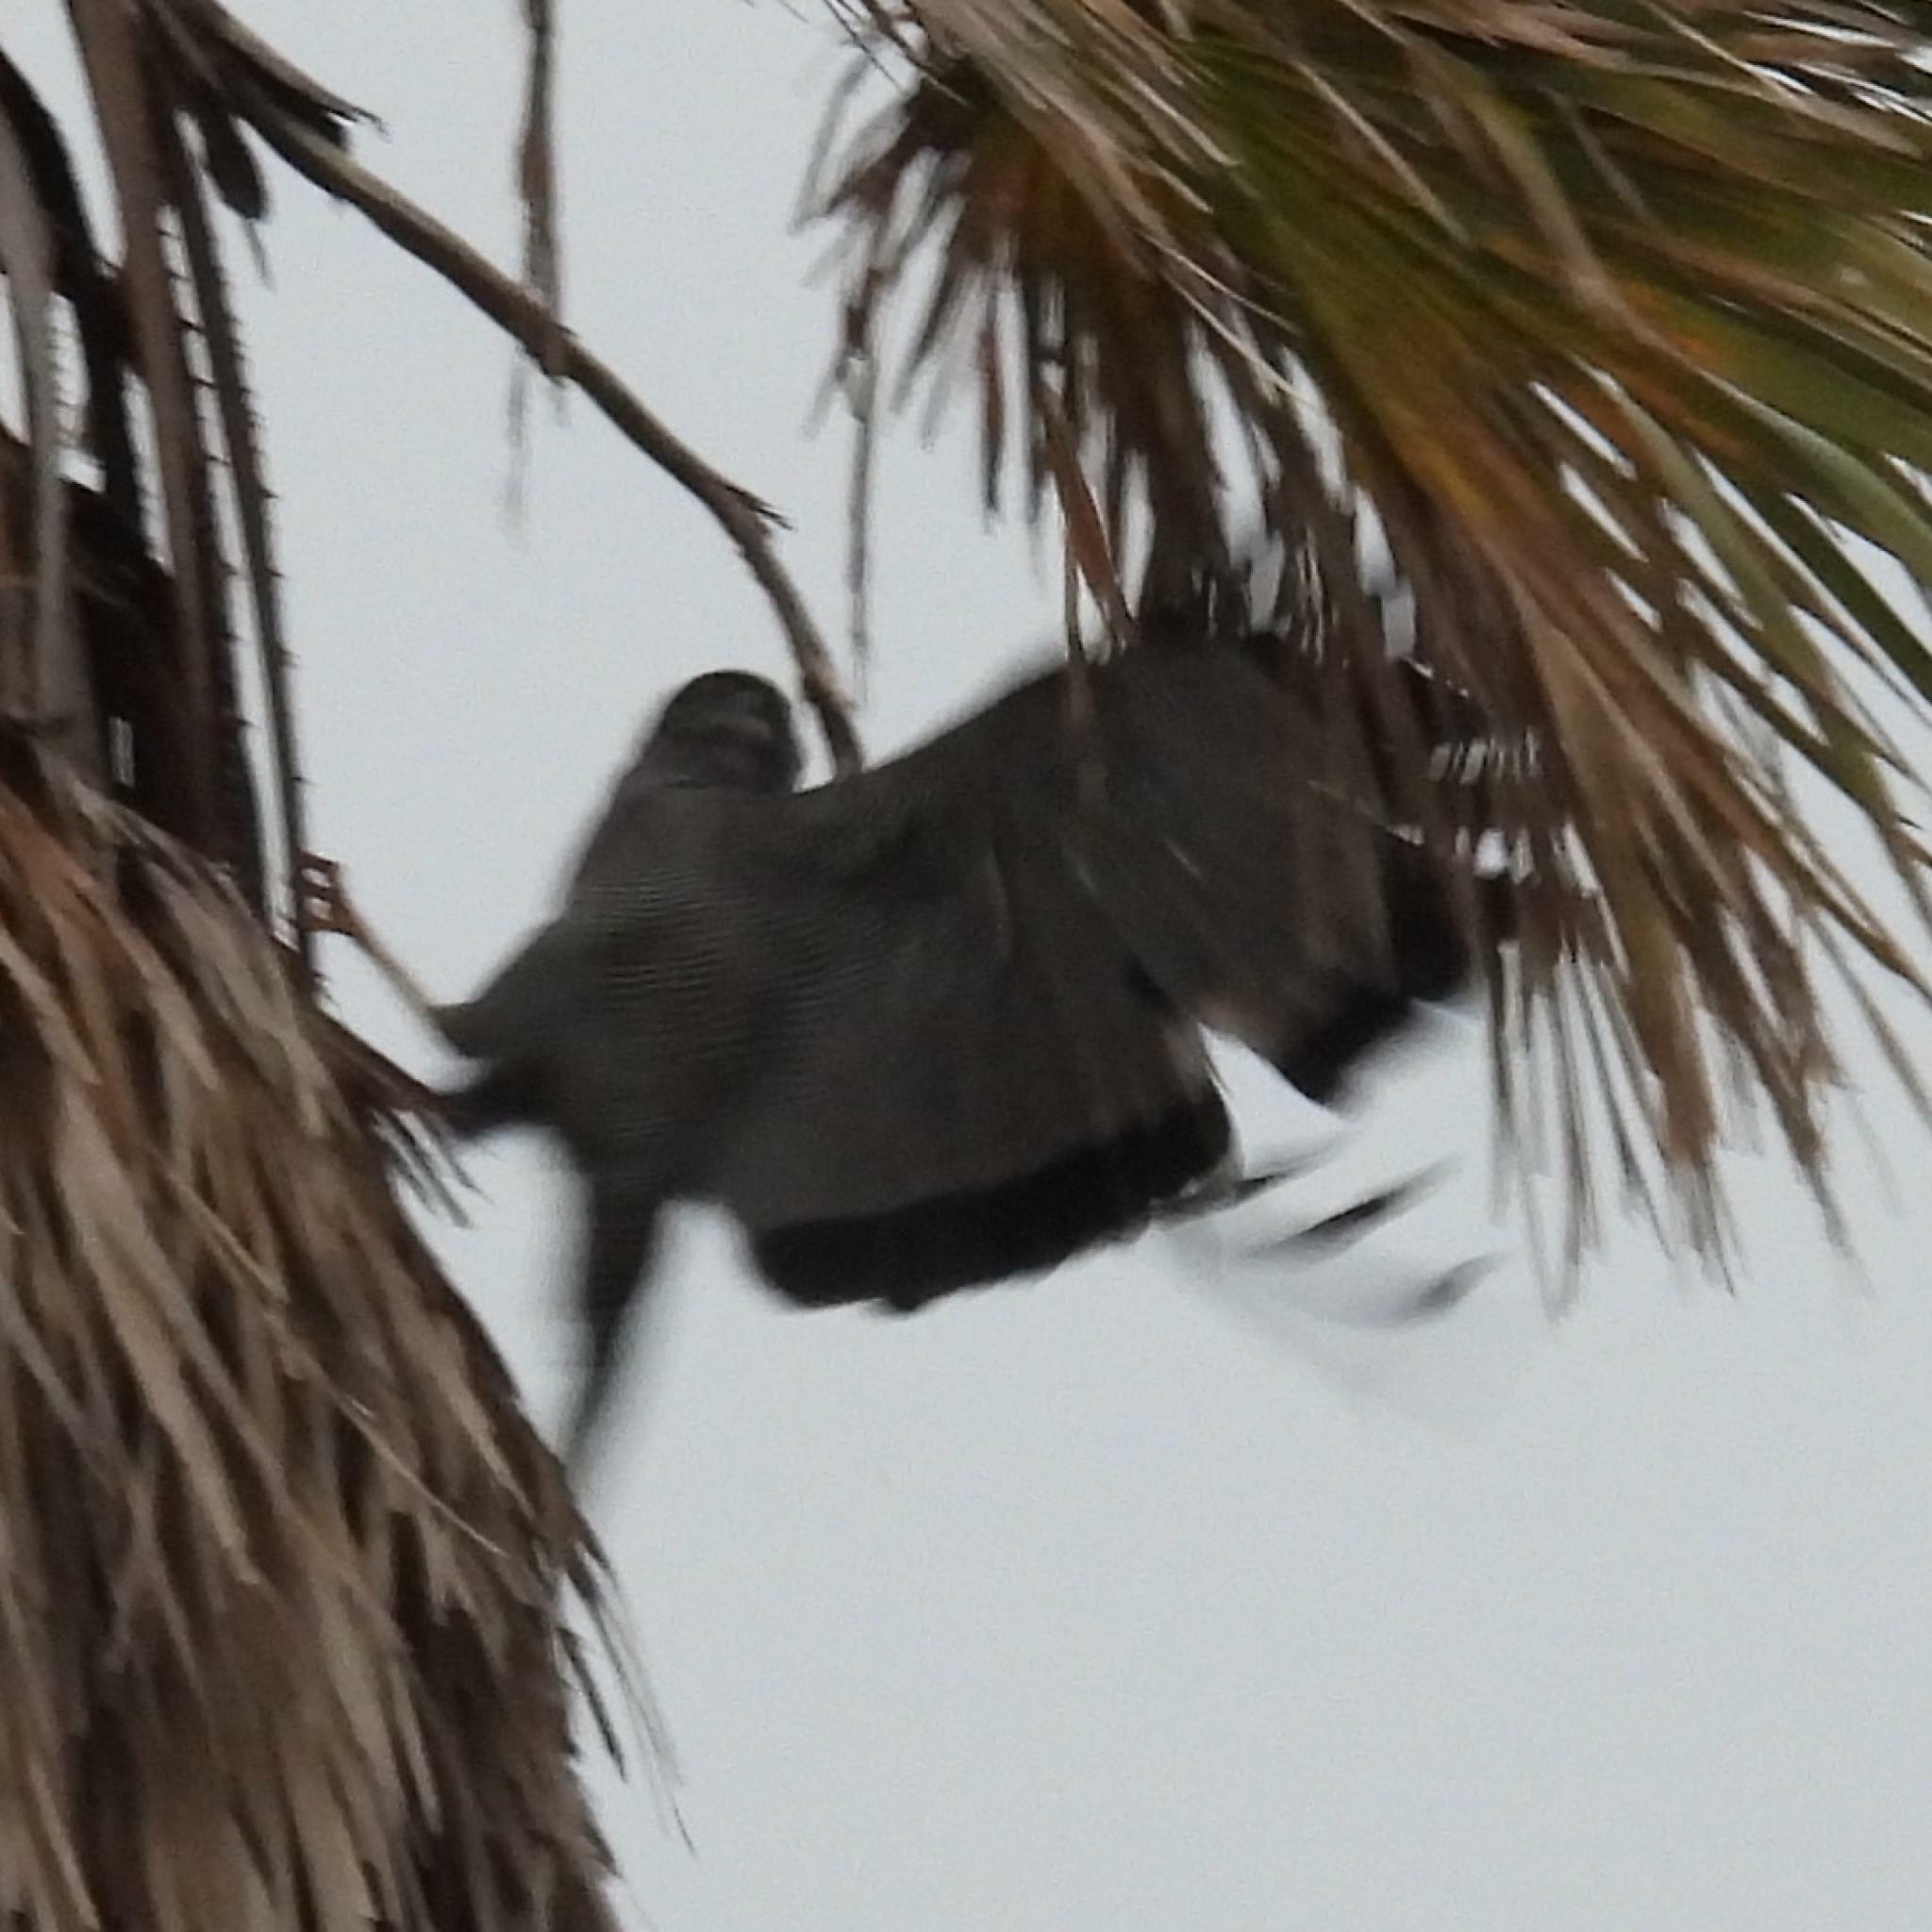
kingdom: Animalia
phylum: Chordata
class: Aves
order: Accipitriformes
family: Accipitridae
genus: Polyboroides
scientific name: Polyboroides typus
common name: African harrier-hawk
